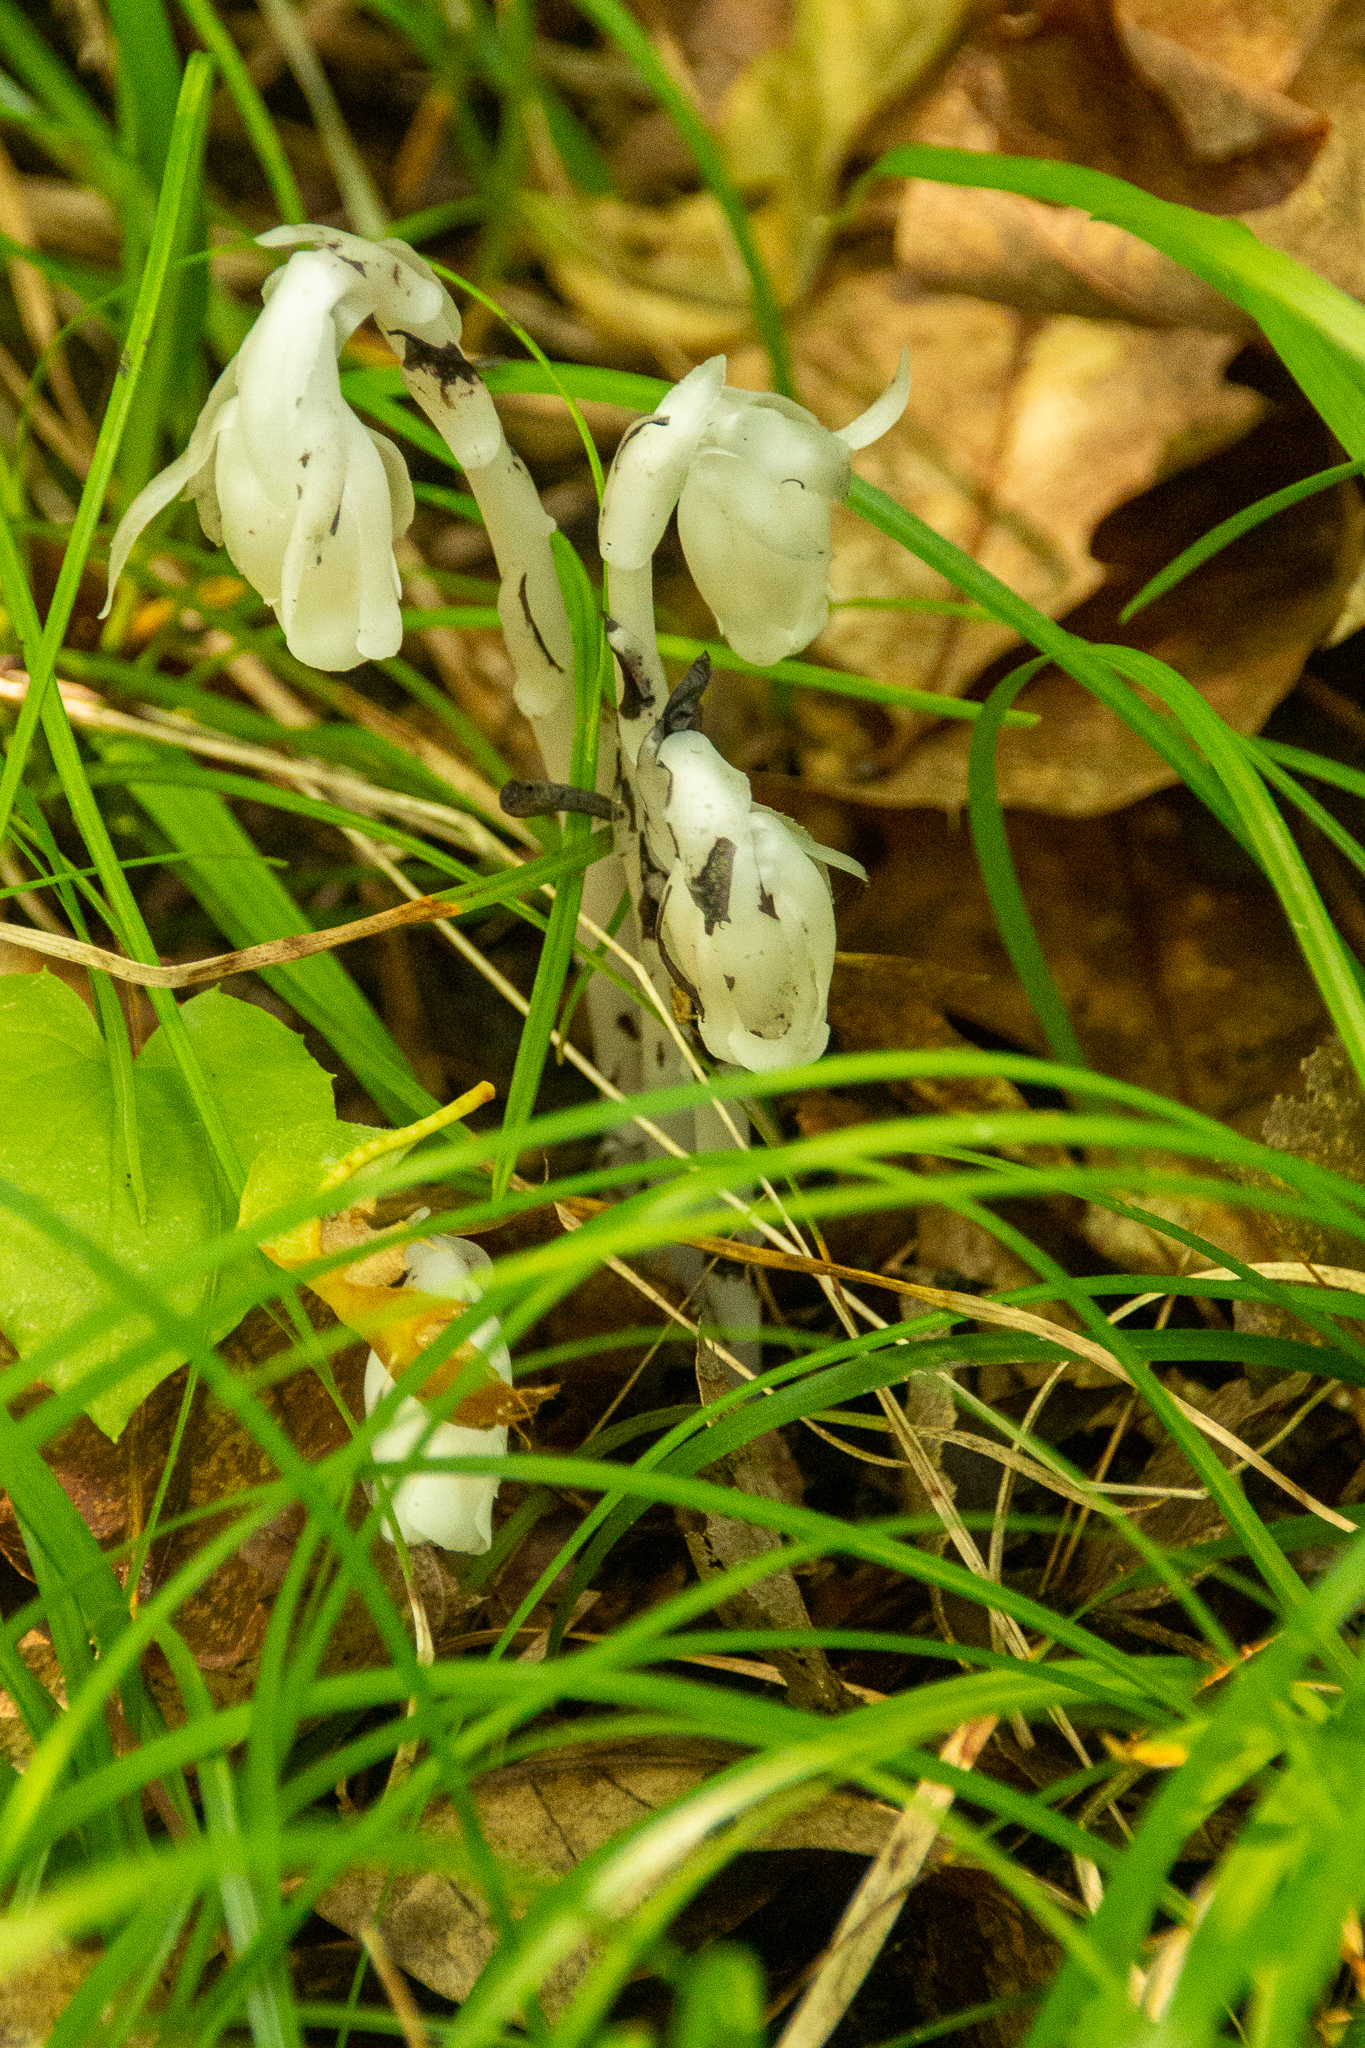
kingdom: Plantae
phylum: Tracheophyta
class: Magnoliopsida
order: Ericales
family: Ericaceae
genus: Monotropa
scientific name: Monotropa uniflora
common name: Convulsion root
